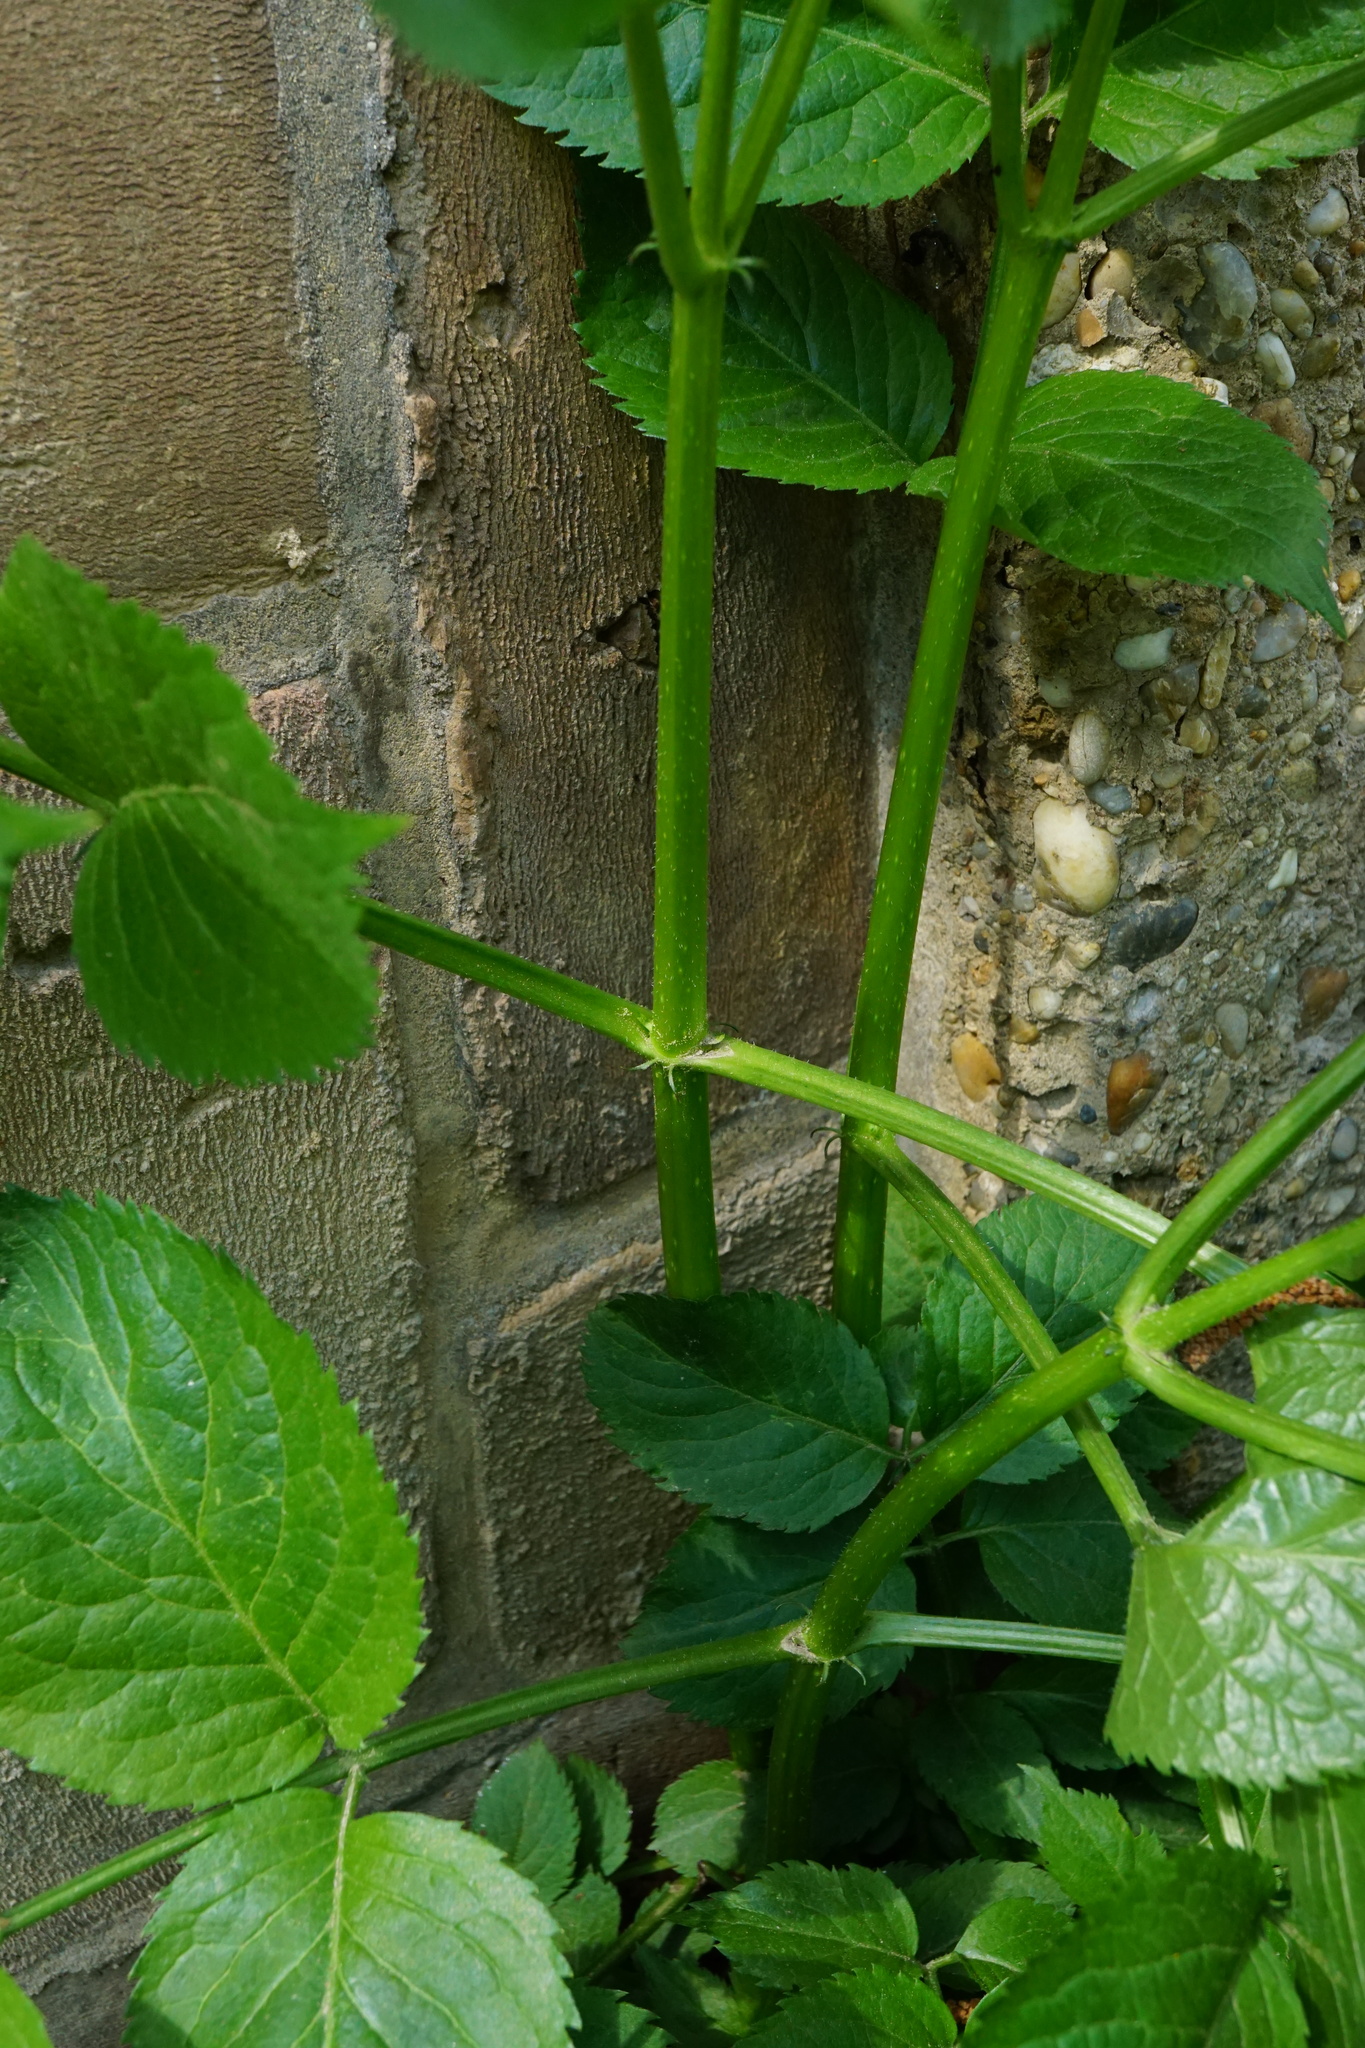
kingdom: Plantae
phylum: Tracheophyta
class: Magnoliopsida
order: Dipsacales
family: Viburnaceae
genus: Sambucus
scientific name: Sambucus nigra
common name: Elder
